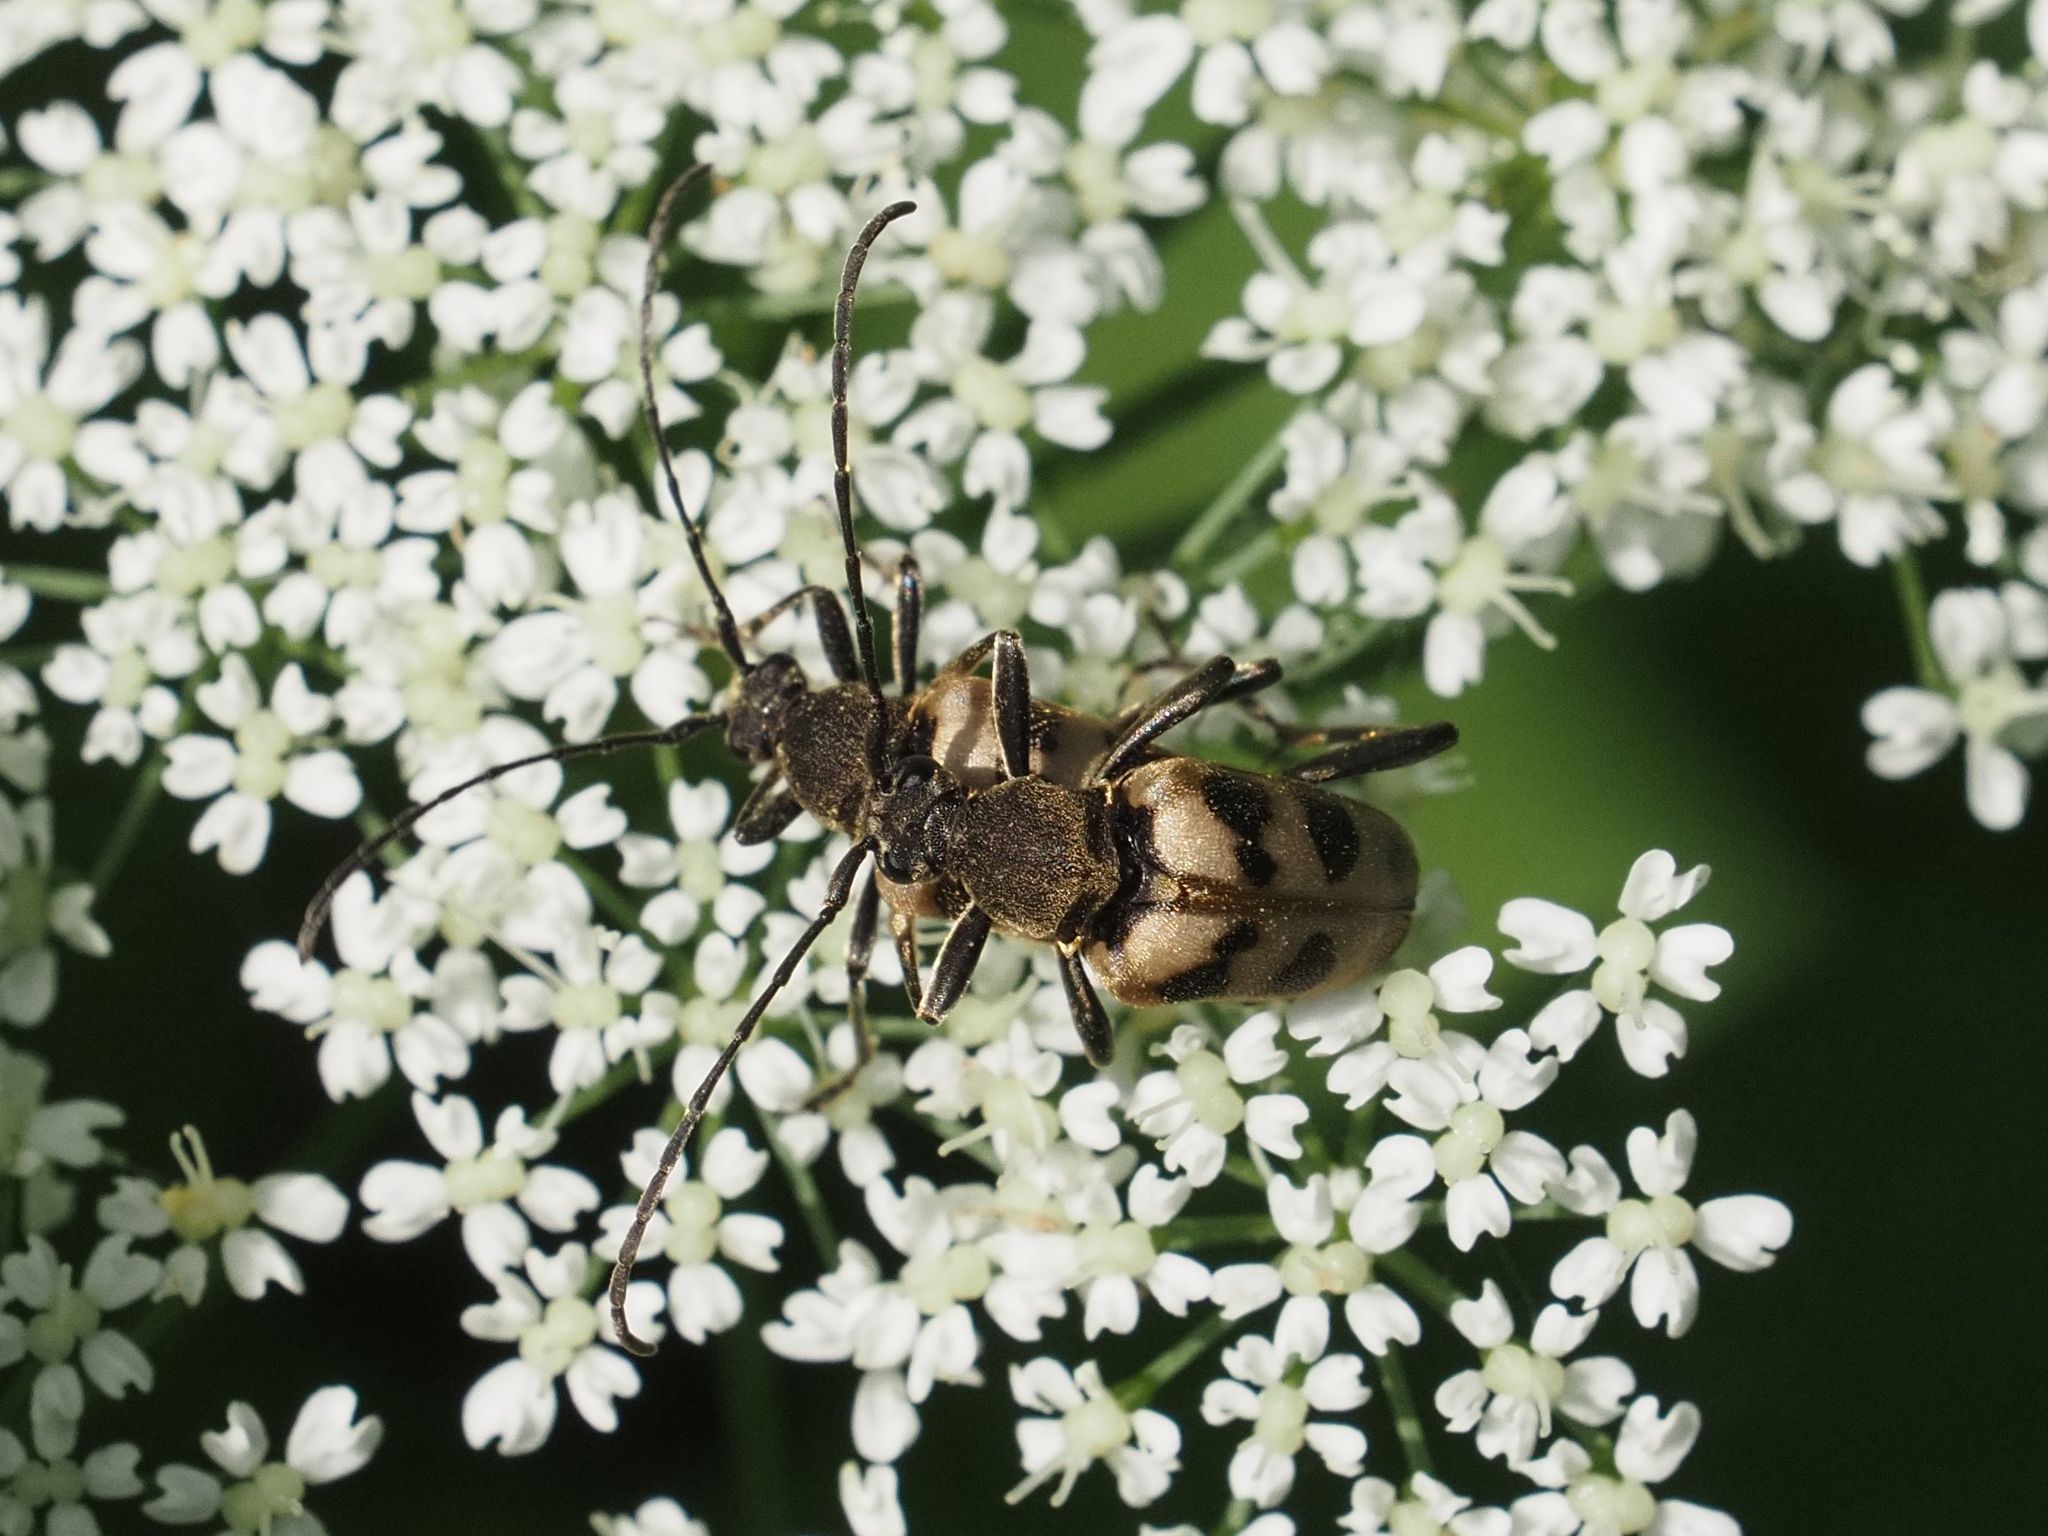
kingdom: Animalia
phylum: Arthropoda
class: Insecta
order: Coleoptera
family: Cerambycidae
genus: Pachytodes
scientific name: Pachytodes cerambyciformis
